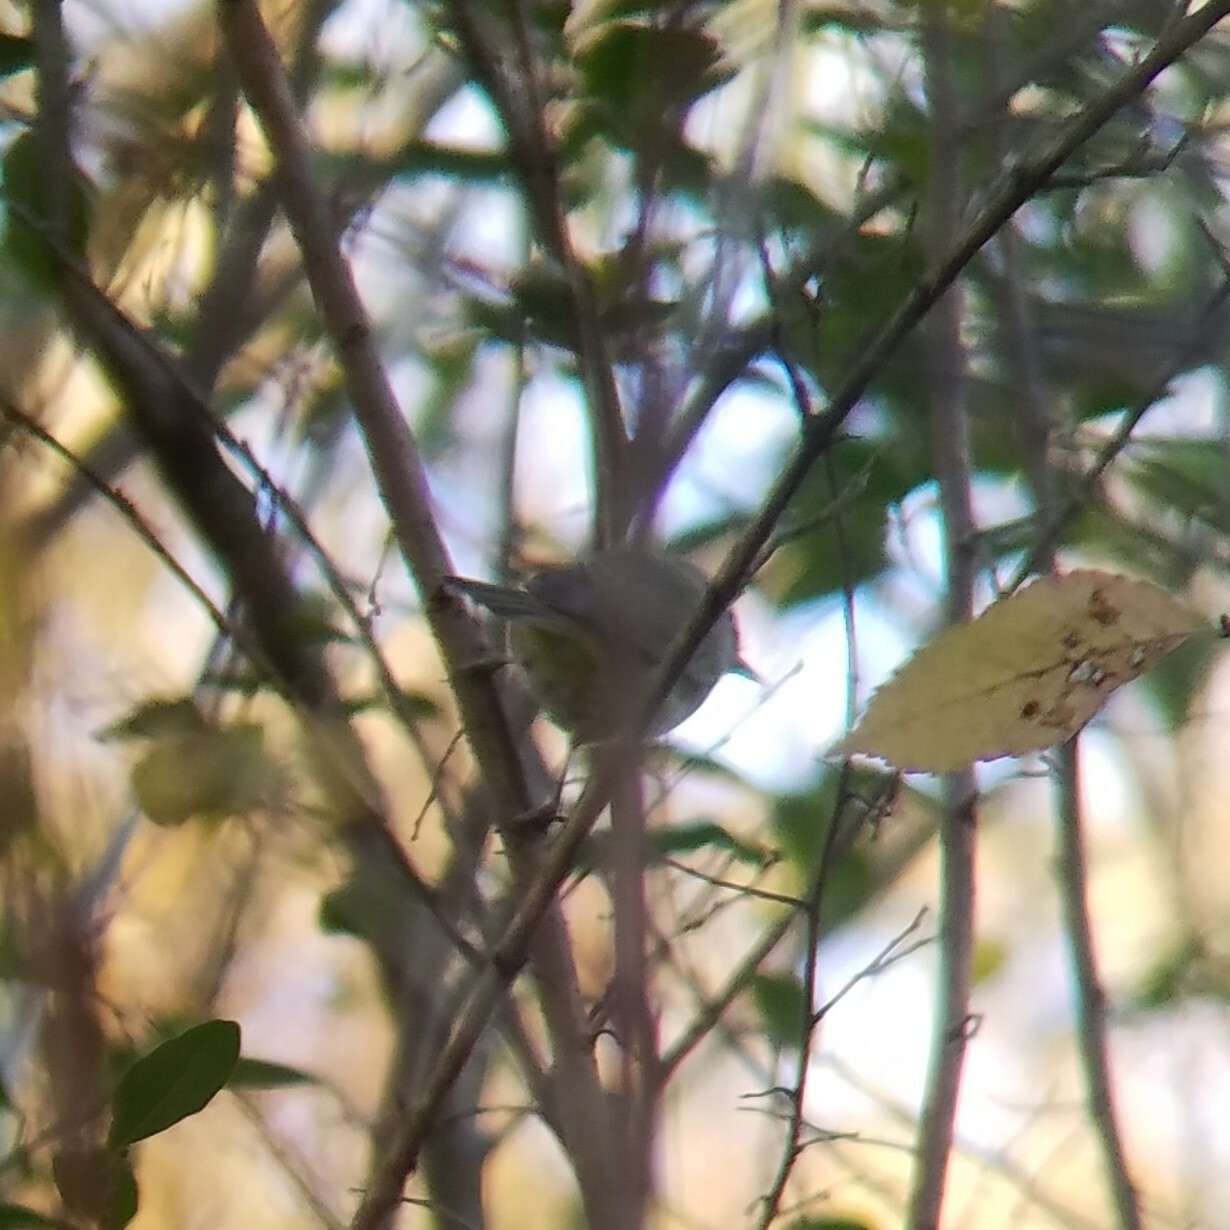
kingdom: Animalia
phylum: Chordata
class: Aves
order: Passeriformes
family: Parulidae
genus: Leiothlypis
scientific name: Leiothlypis celata
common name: Orange-crowned warbler
